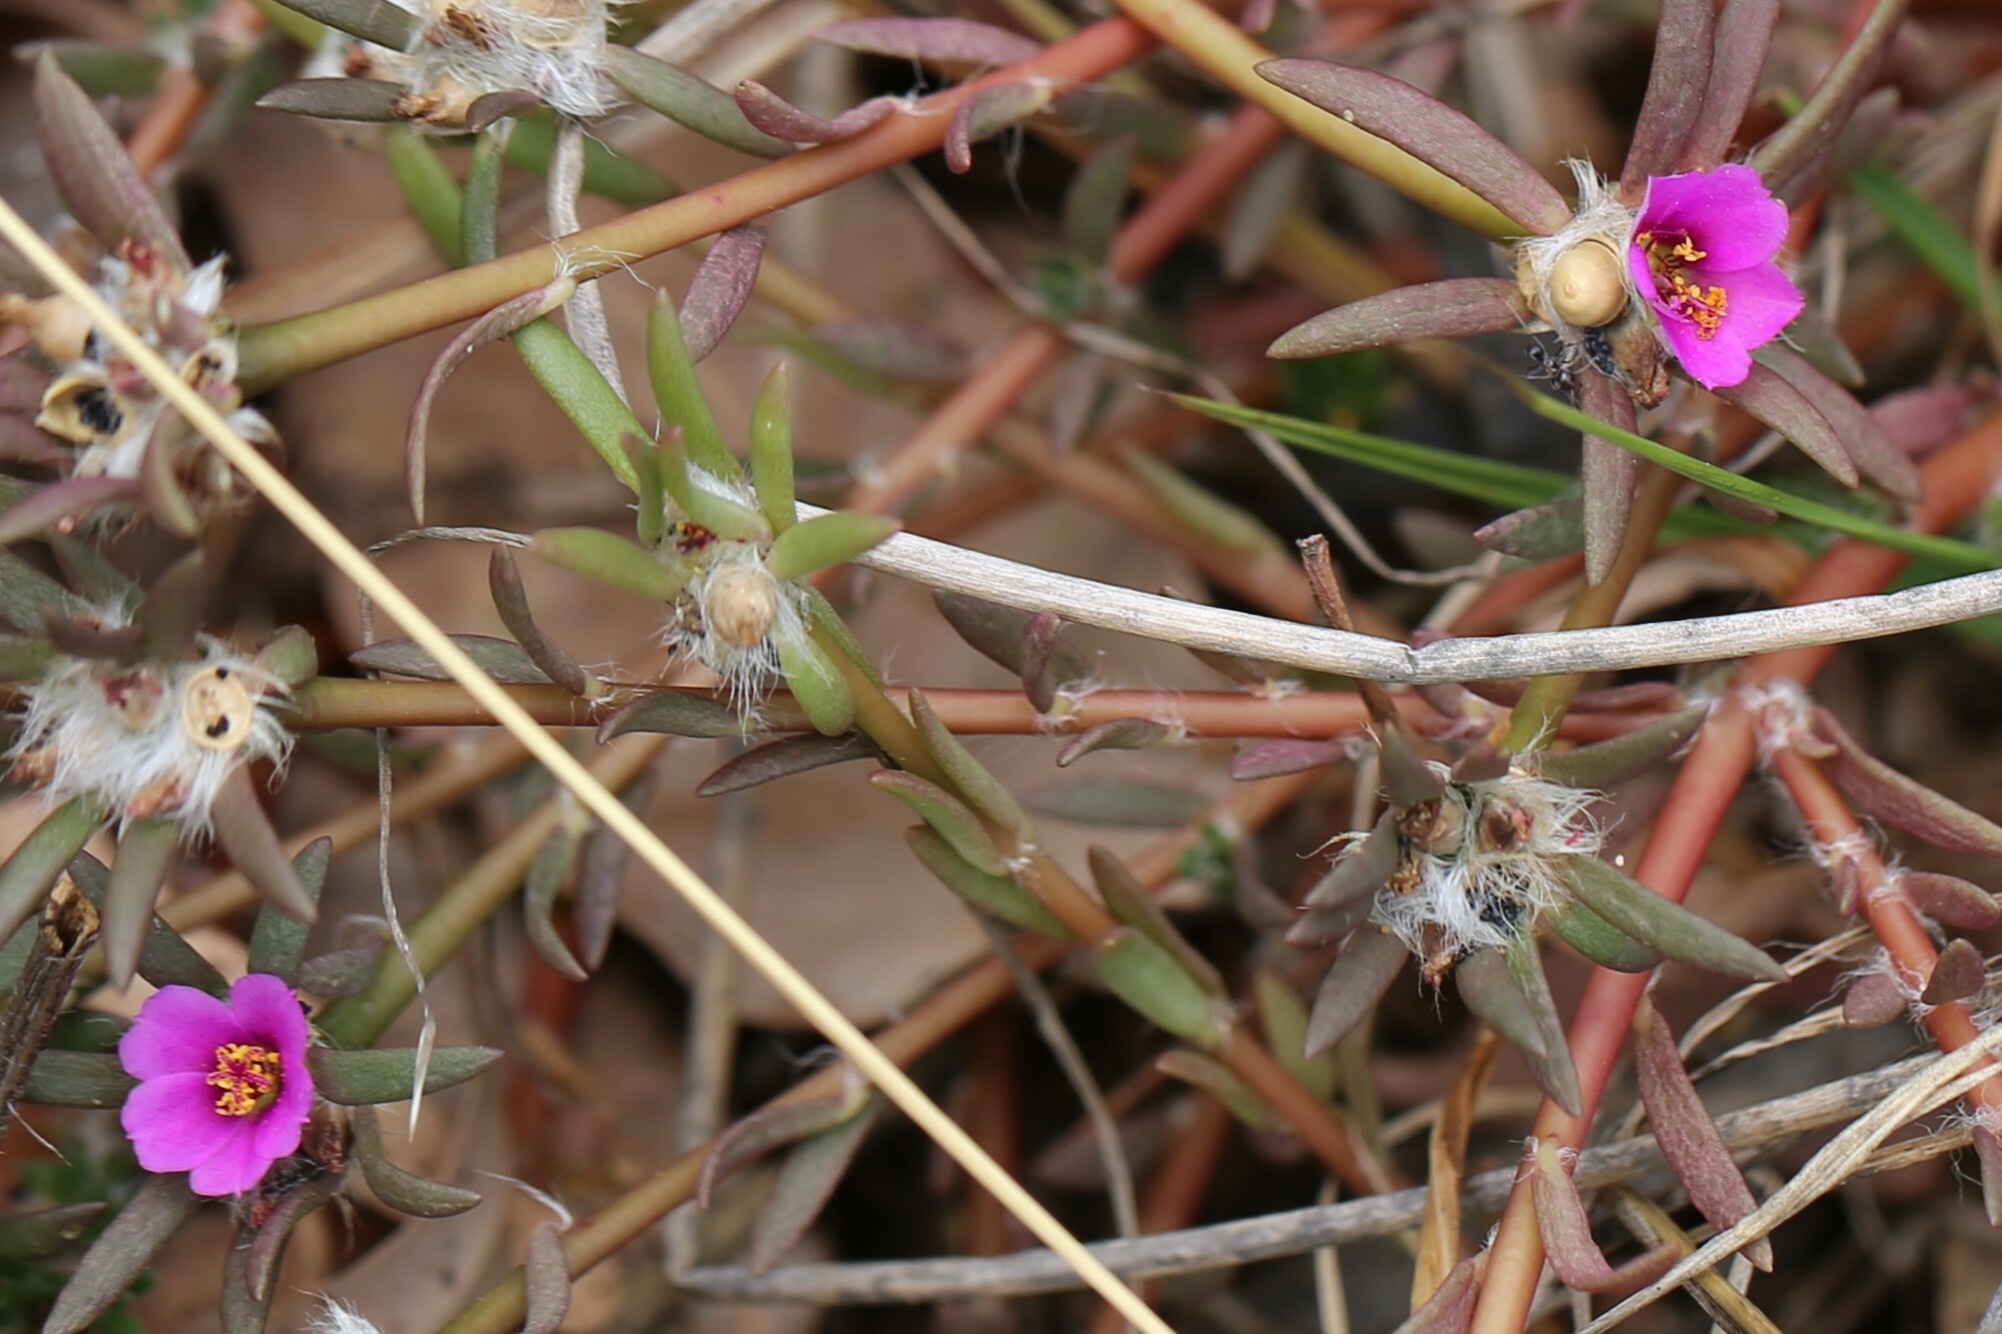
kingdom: Plantae
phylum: Tracheophyta
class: Magnoliopsida
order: Caryophyllales
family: Portulacaceae
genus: Portulaca
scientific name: Portulaca pilosa
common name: Kiss me quick
